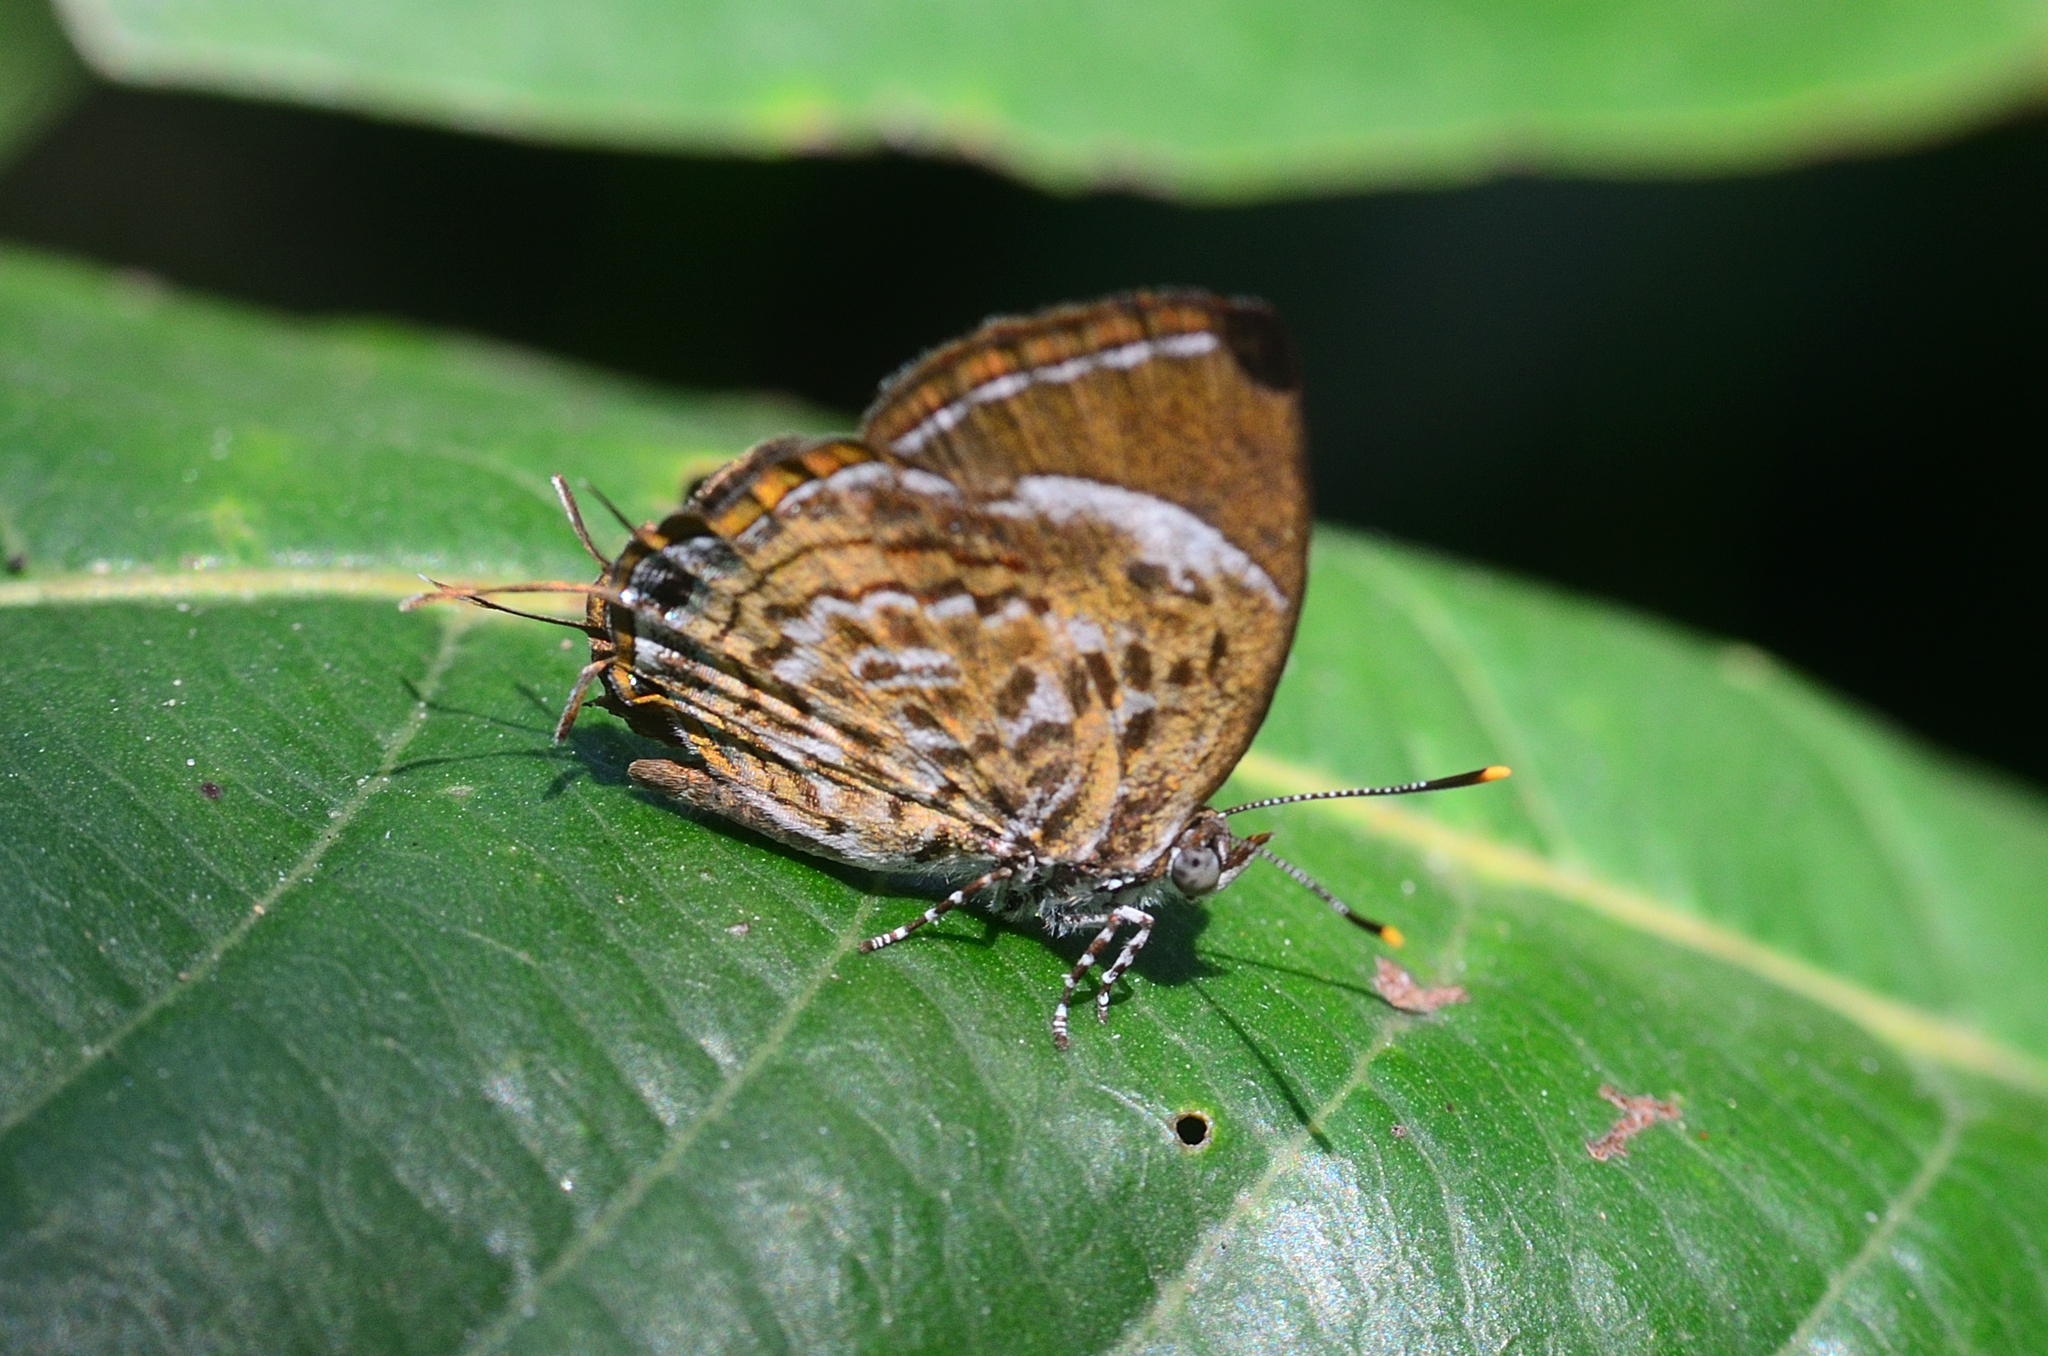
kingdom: Animalia
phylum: Arthropoda
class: Insecta
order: Lepidoptera
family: Lycaenidae
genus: Rathinda
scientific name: Rathinda amor
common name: Monkey puzzle
